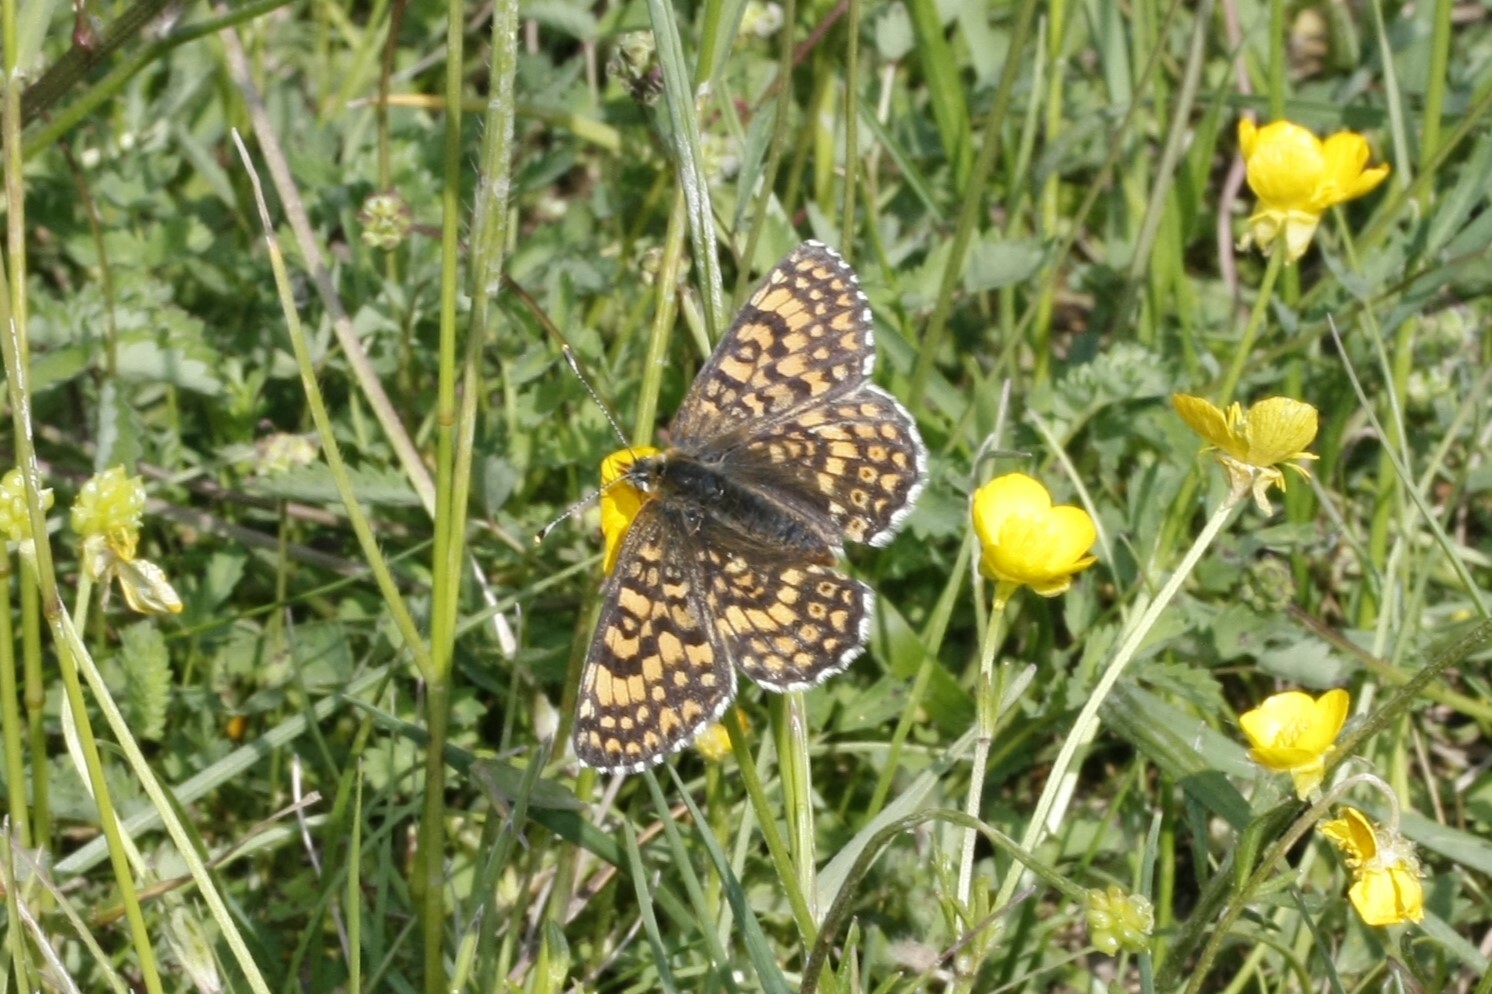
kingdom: Animalia
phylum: Arthropoda
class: Insecta
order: Lepidoptera
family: Nymphalidae
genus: Melitaea
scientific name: Melitaea cinxia
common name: Glanville fritillary
